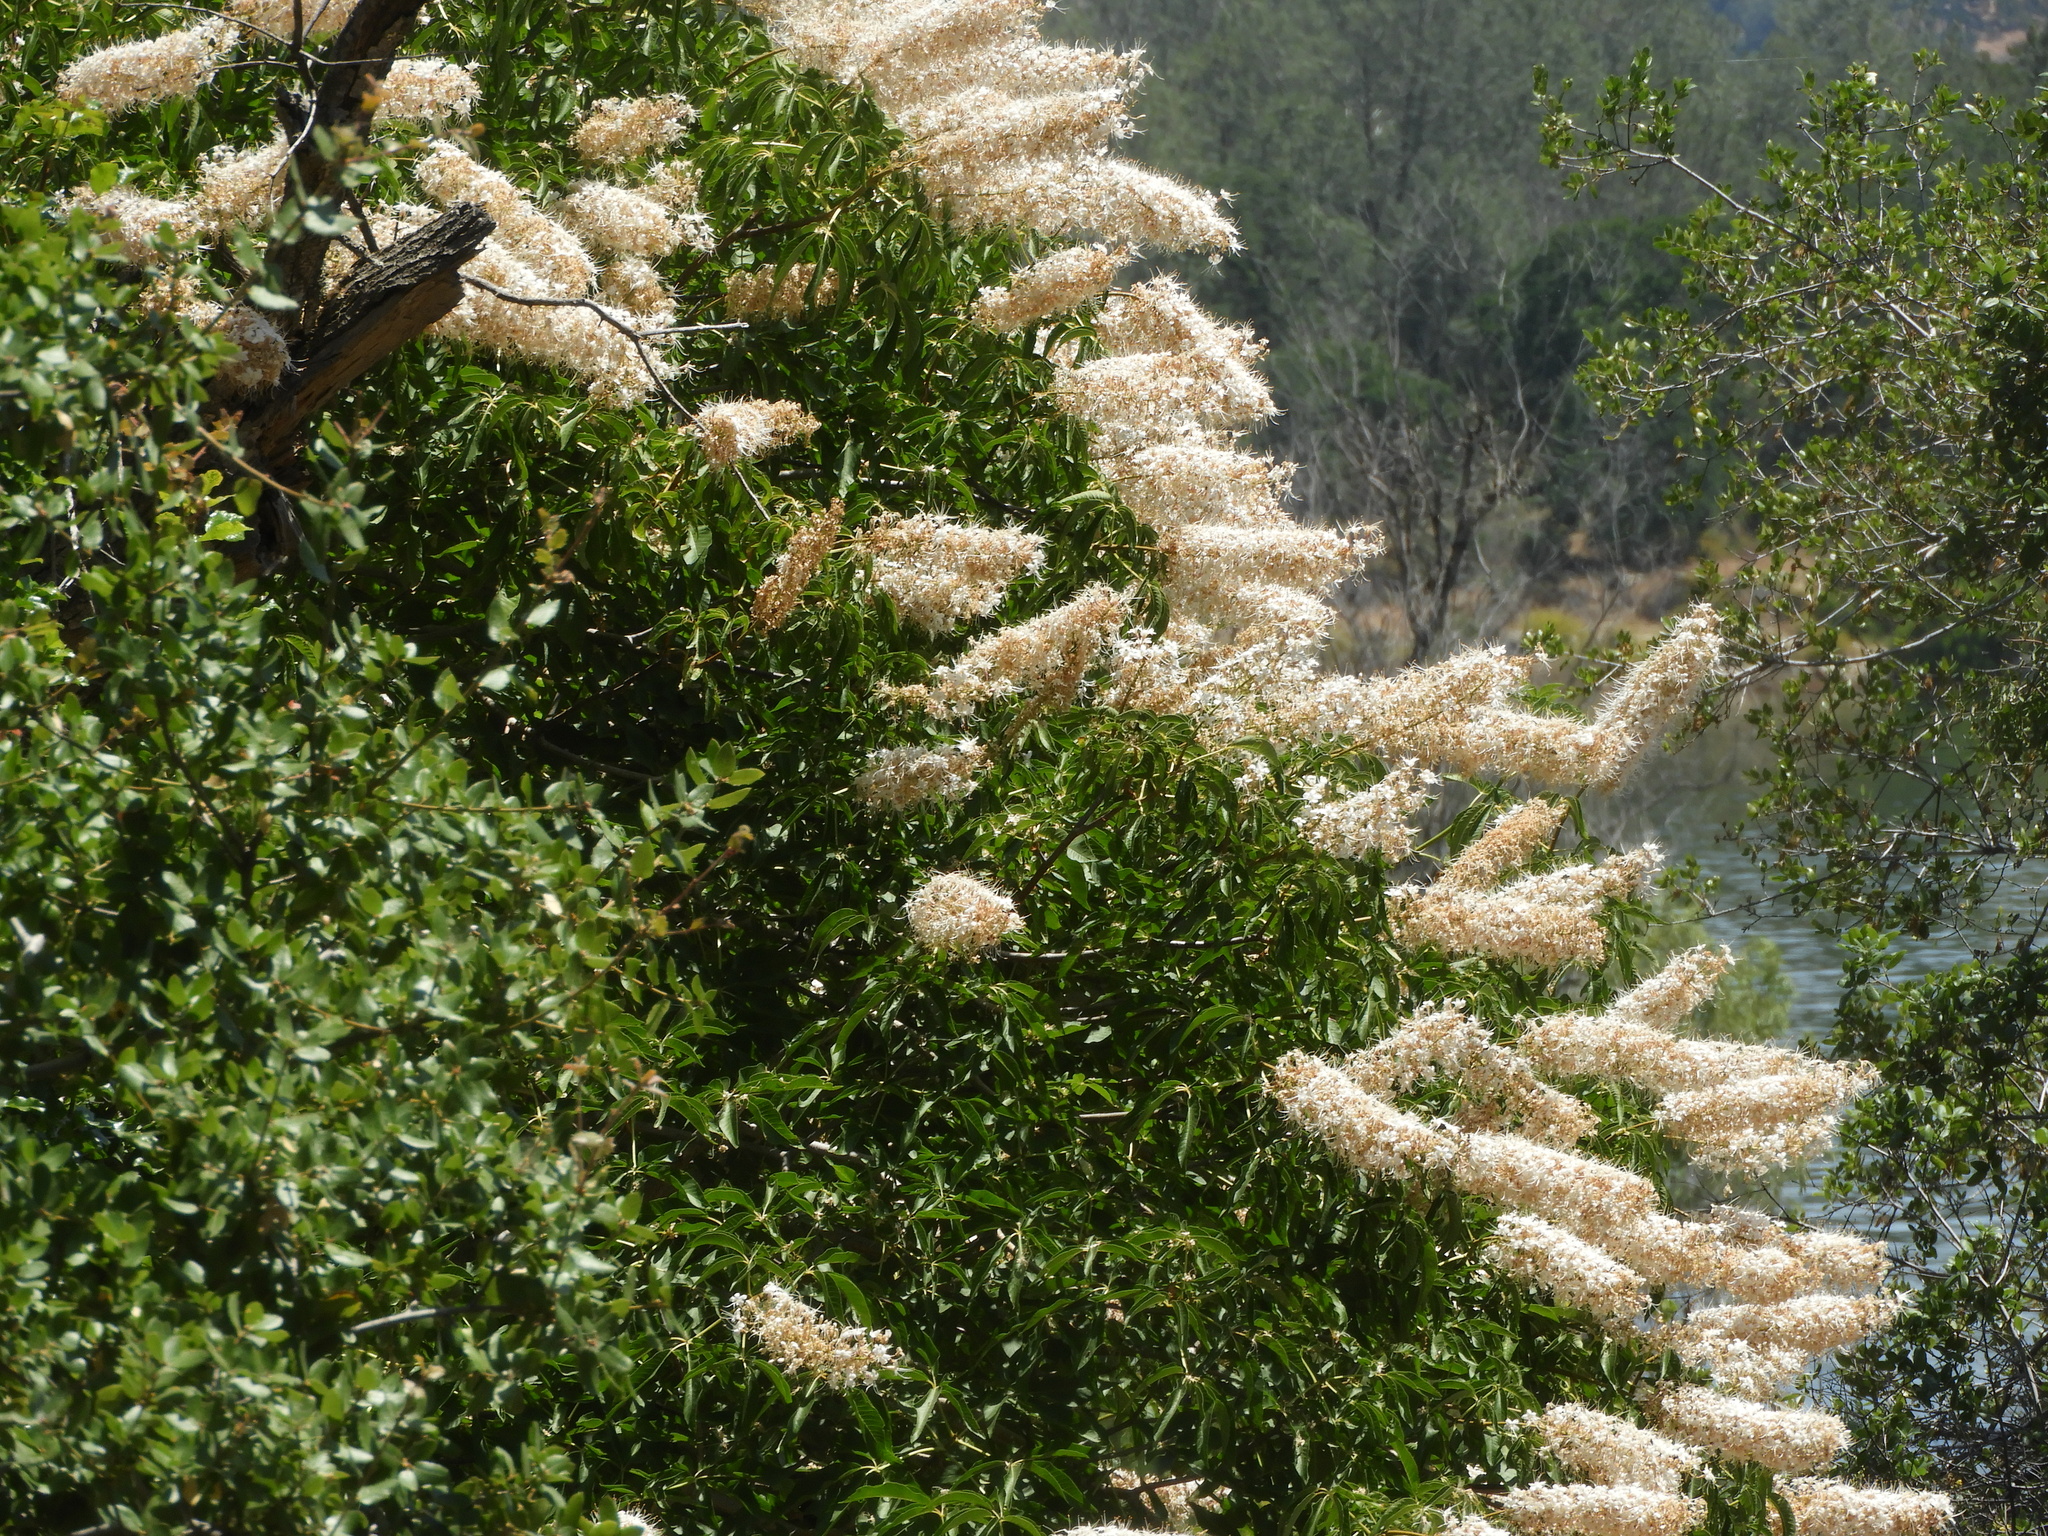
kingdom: Plantae
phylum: Tracheophyta
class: Magnoliopsida
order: Sapindales
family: Sapindaceae
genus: Aesculus
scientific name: Aesculus californica
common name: California buckeye
